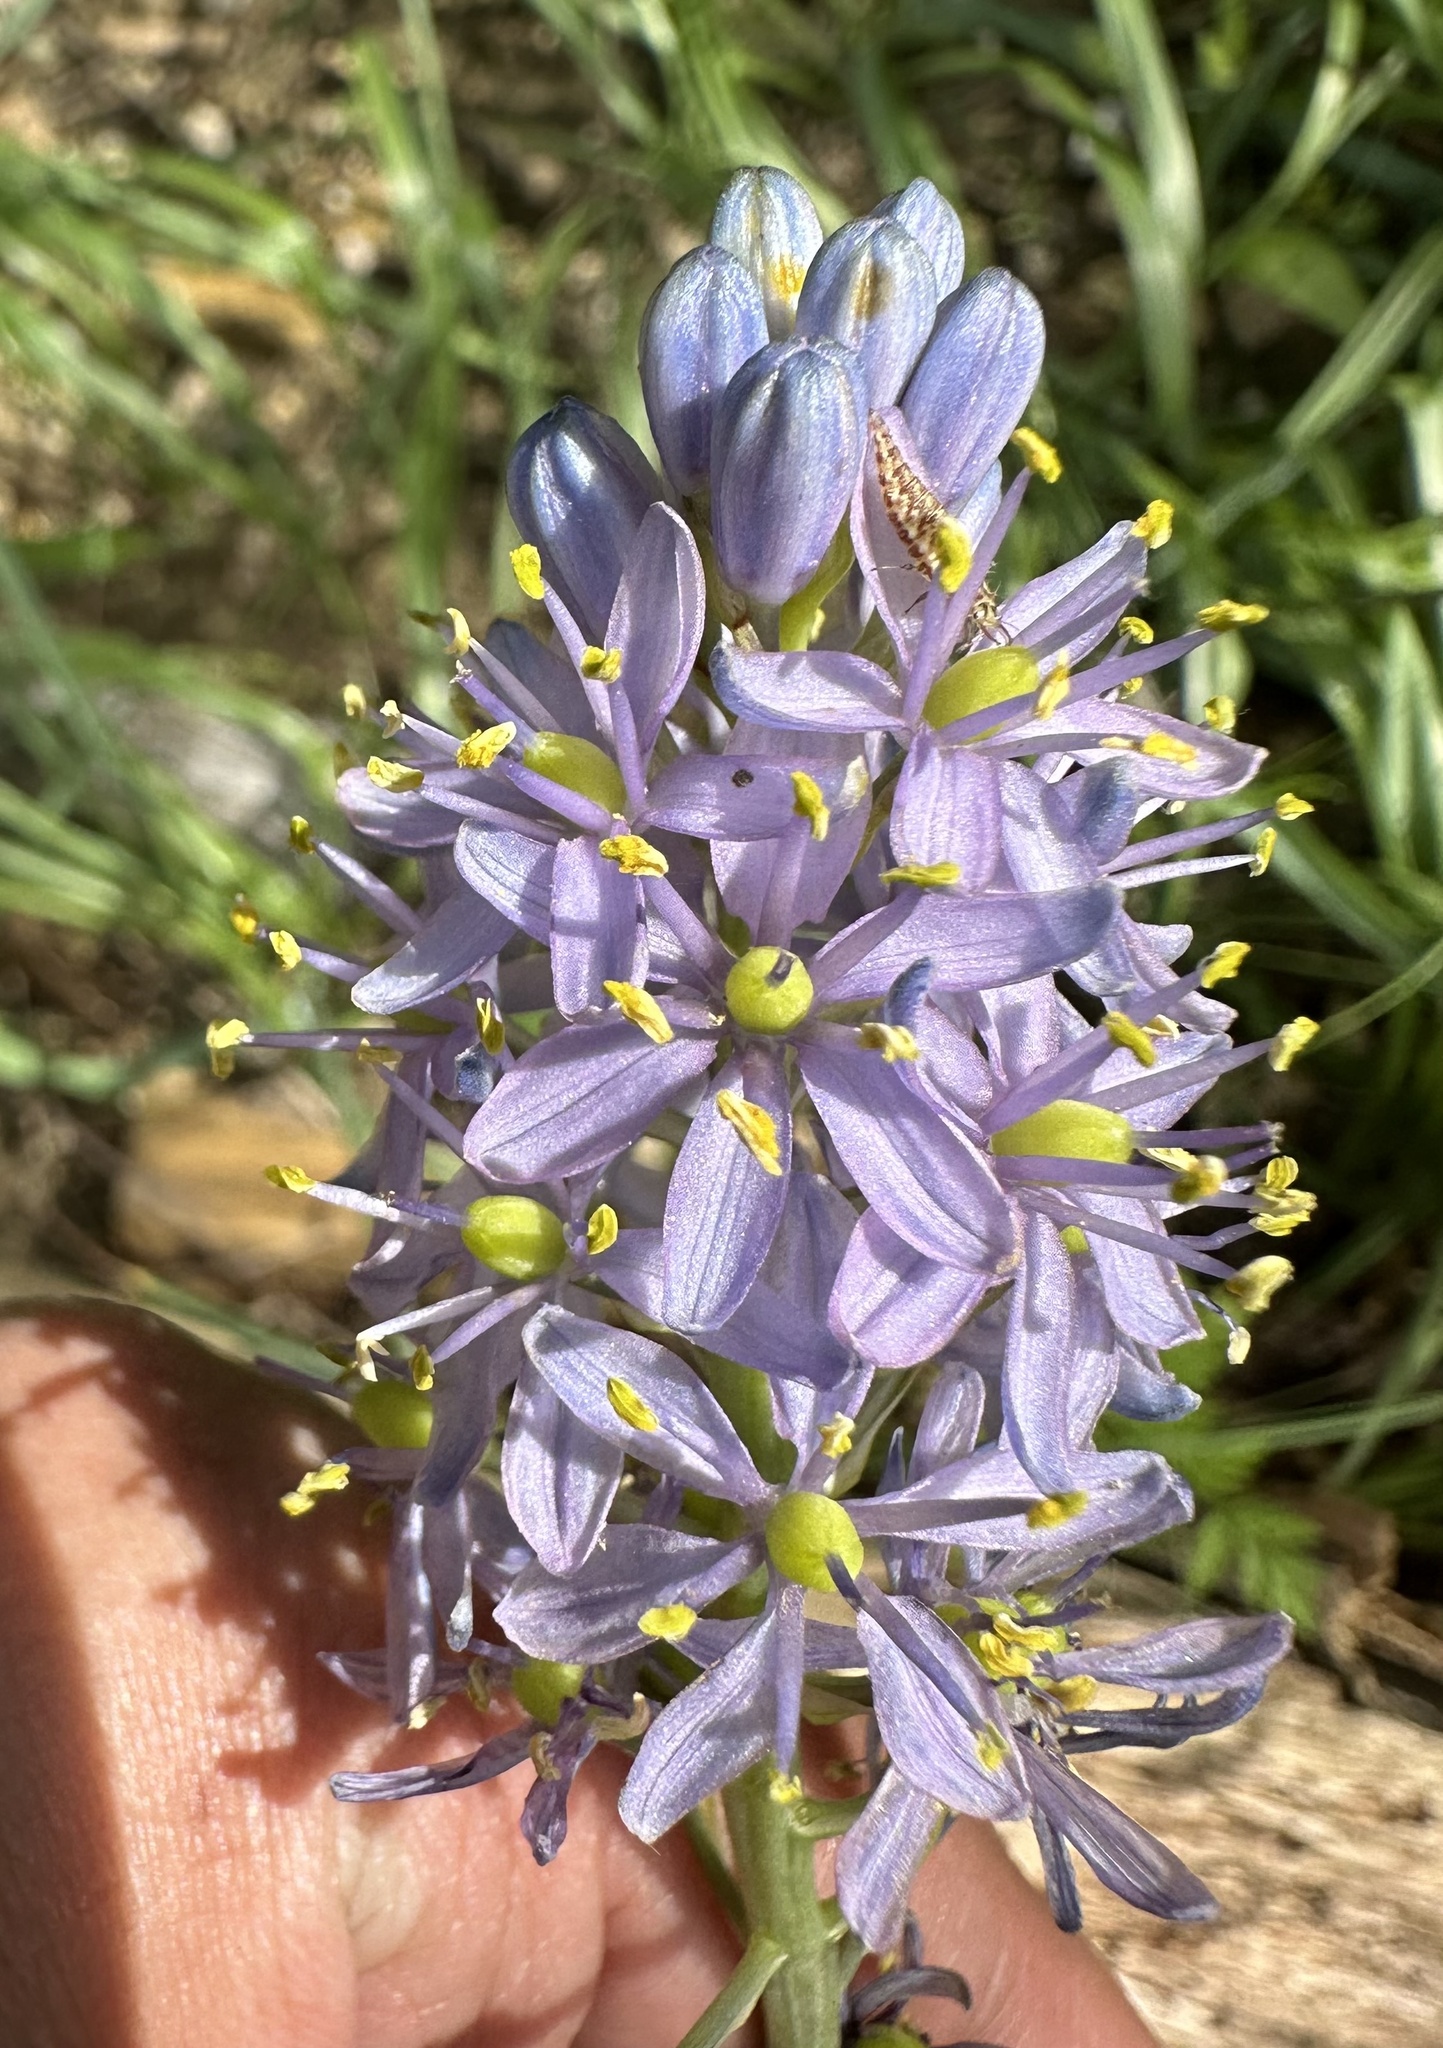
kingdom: Plantae
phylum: Tracheophyta
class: Liliopsida
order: Asparagales
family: Asparagaceae
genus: Camassia
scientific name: Camassia scilloides
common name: Wild hyacinth
